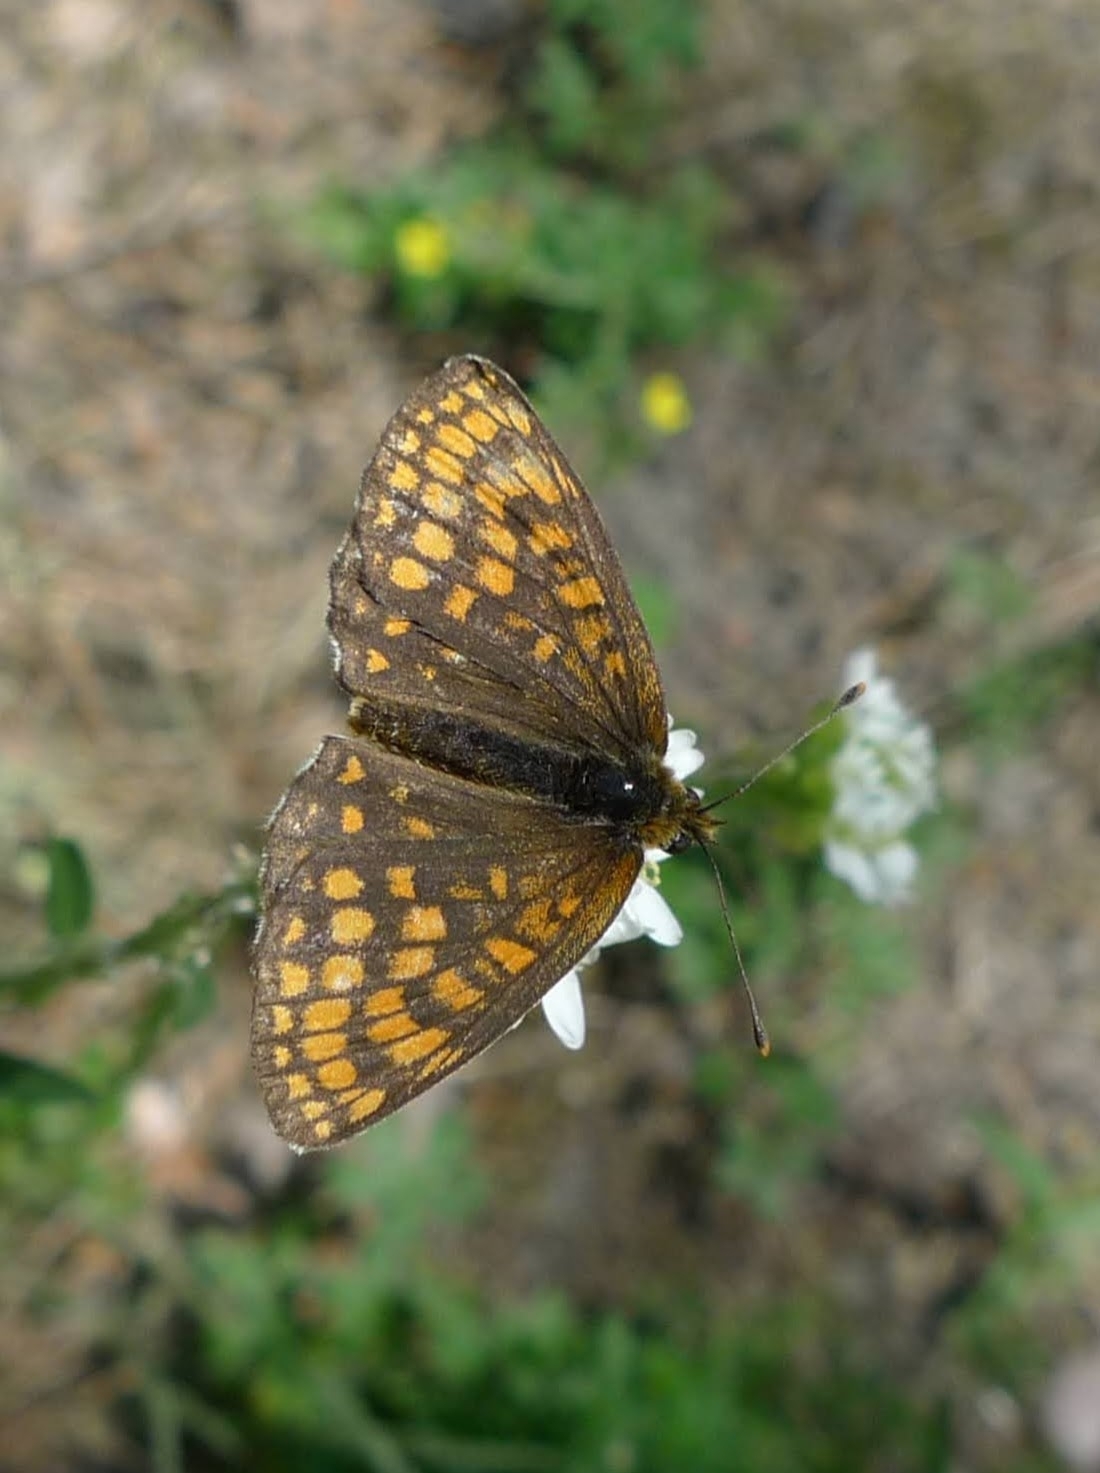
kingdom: Animalia
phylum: Arthropoda
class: Insecta
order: Lepidoptera
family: Nymphalidae
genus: Melitaea
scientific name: Melitaea athalia
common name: Heath fritillary
